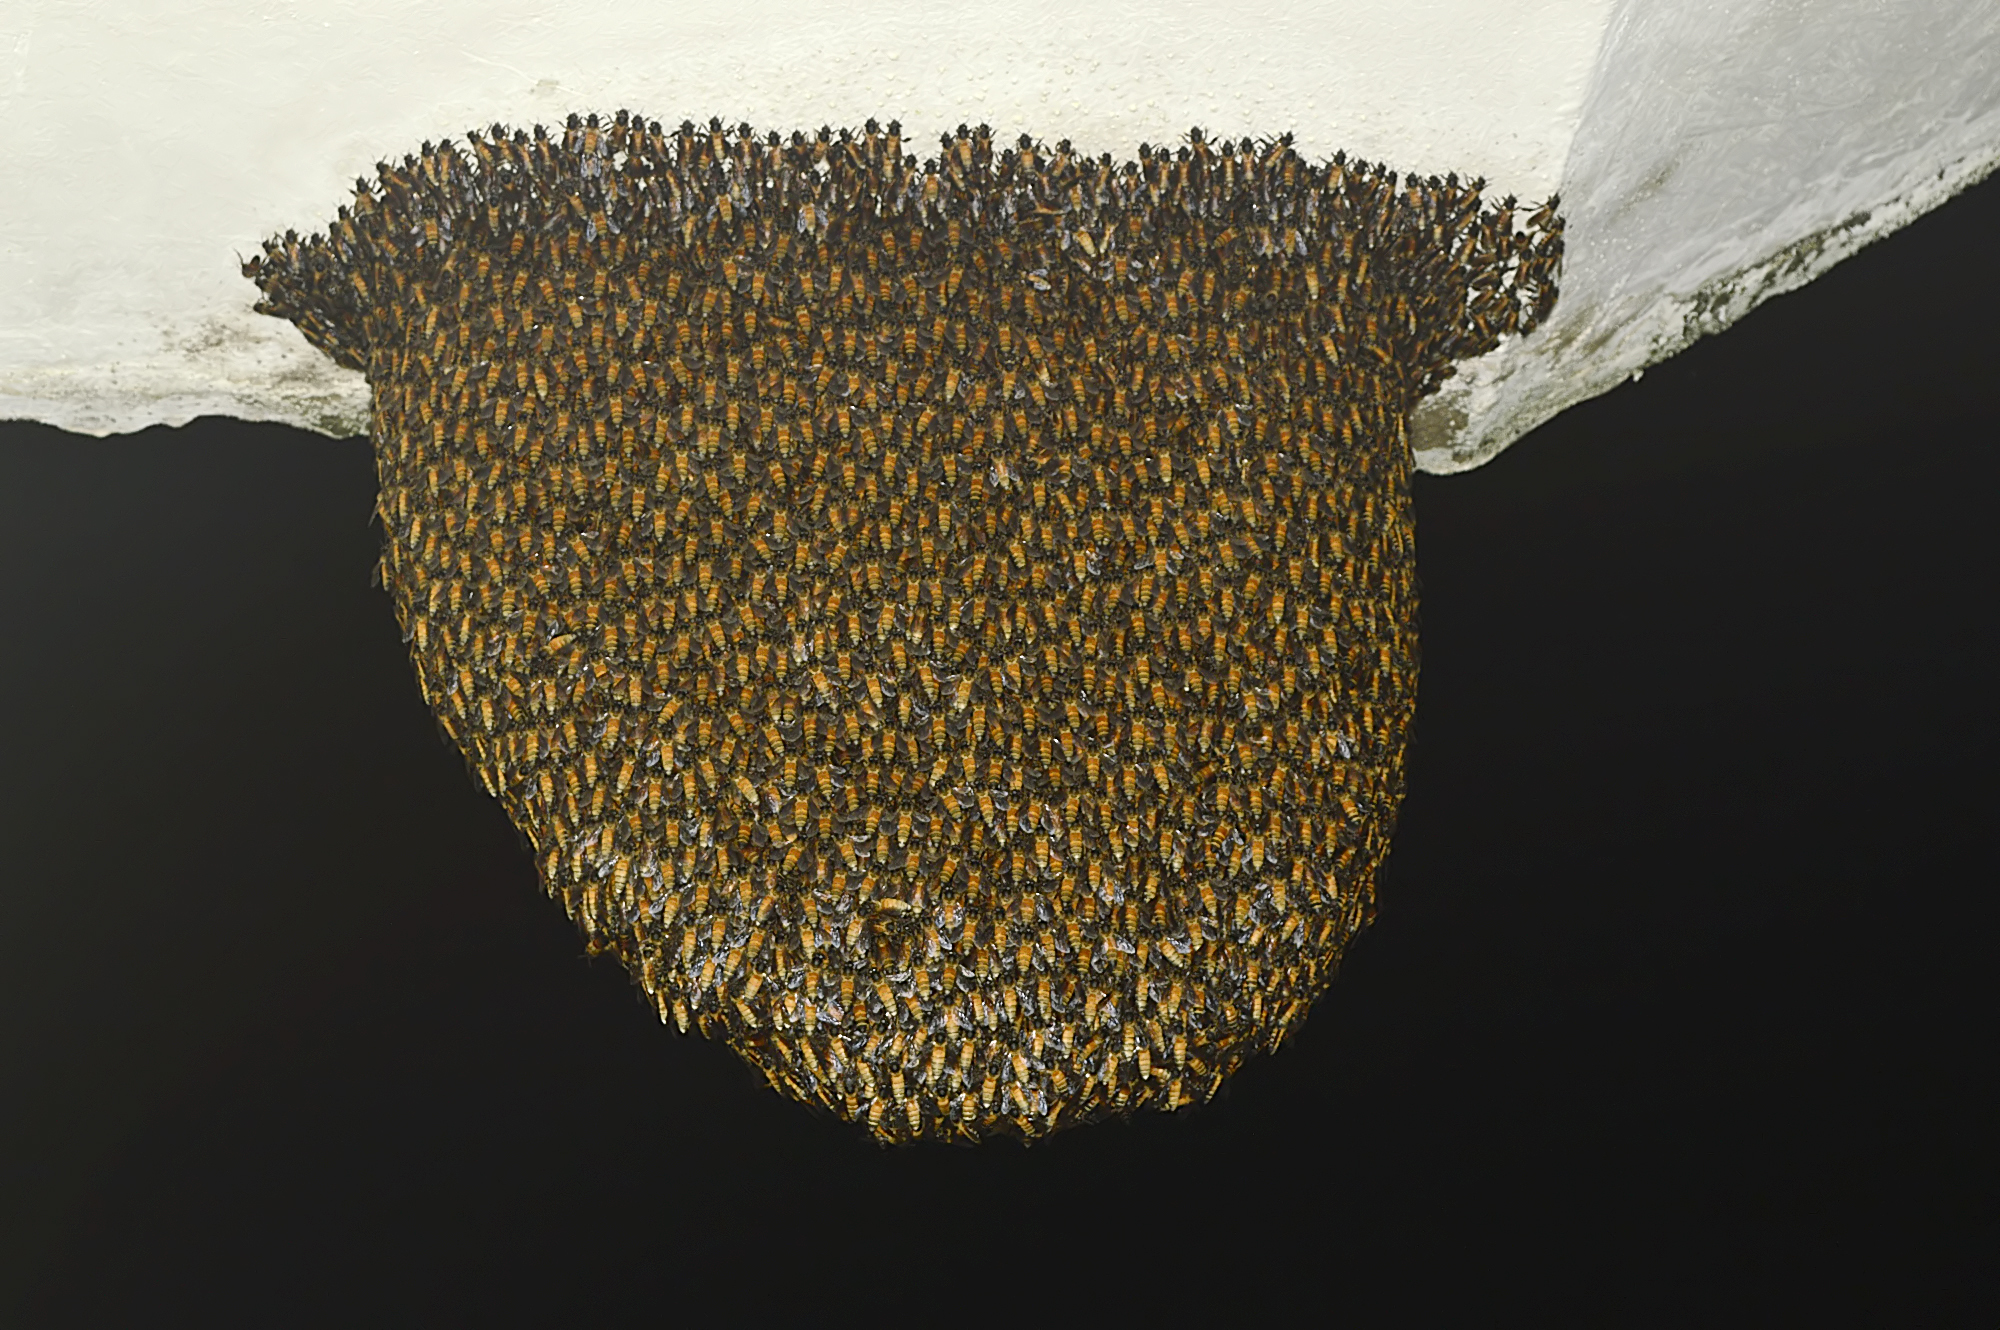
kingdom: Animalia
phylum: Arthropoda
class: Insecta
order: Hymenoptera
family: Apidae
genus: Apis
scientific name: Apis dorsata
